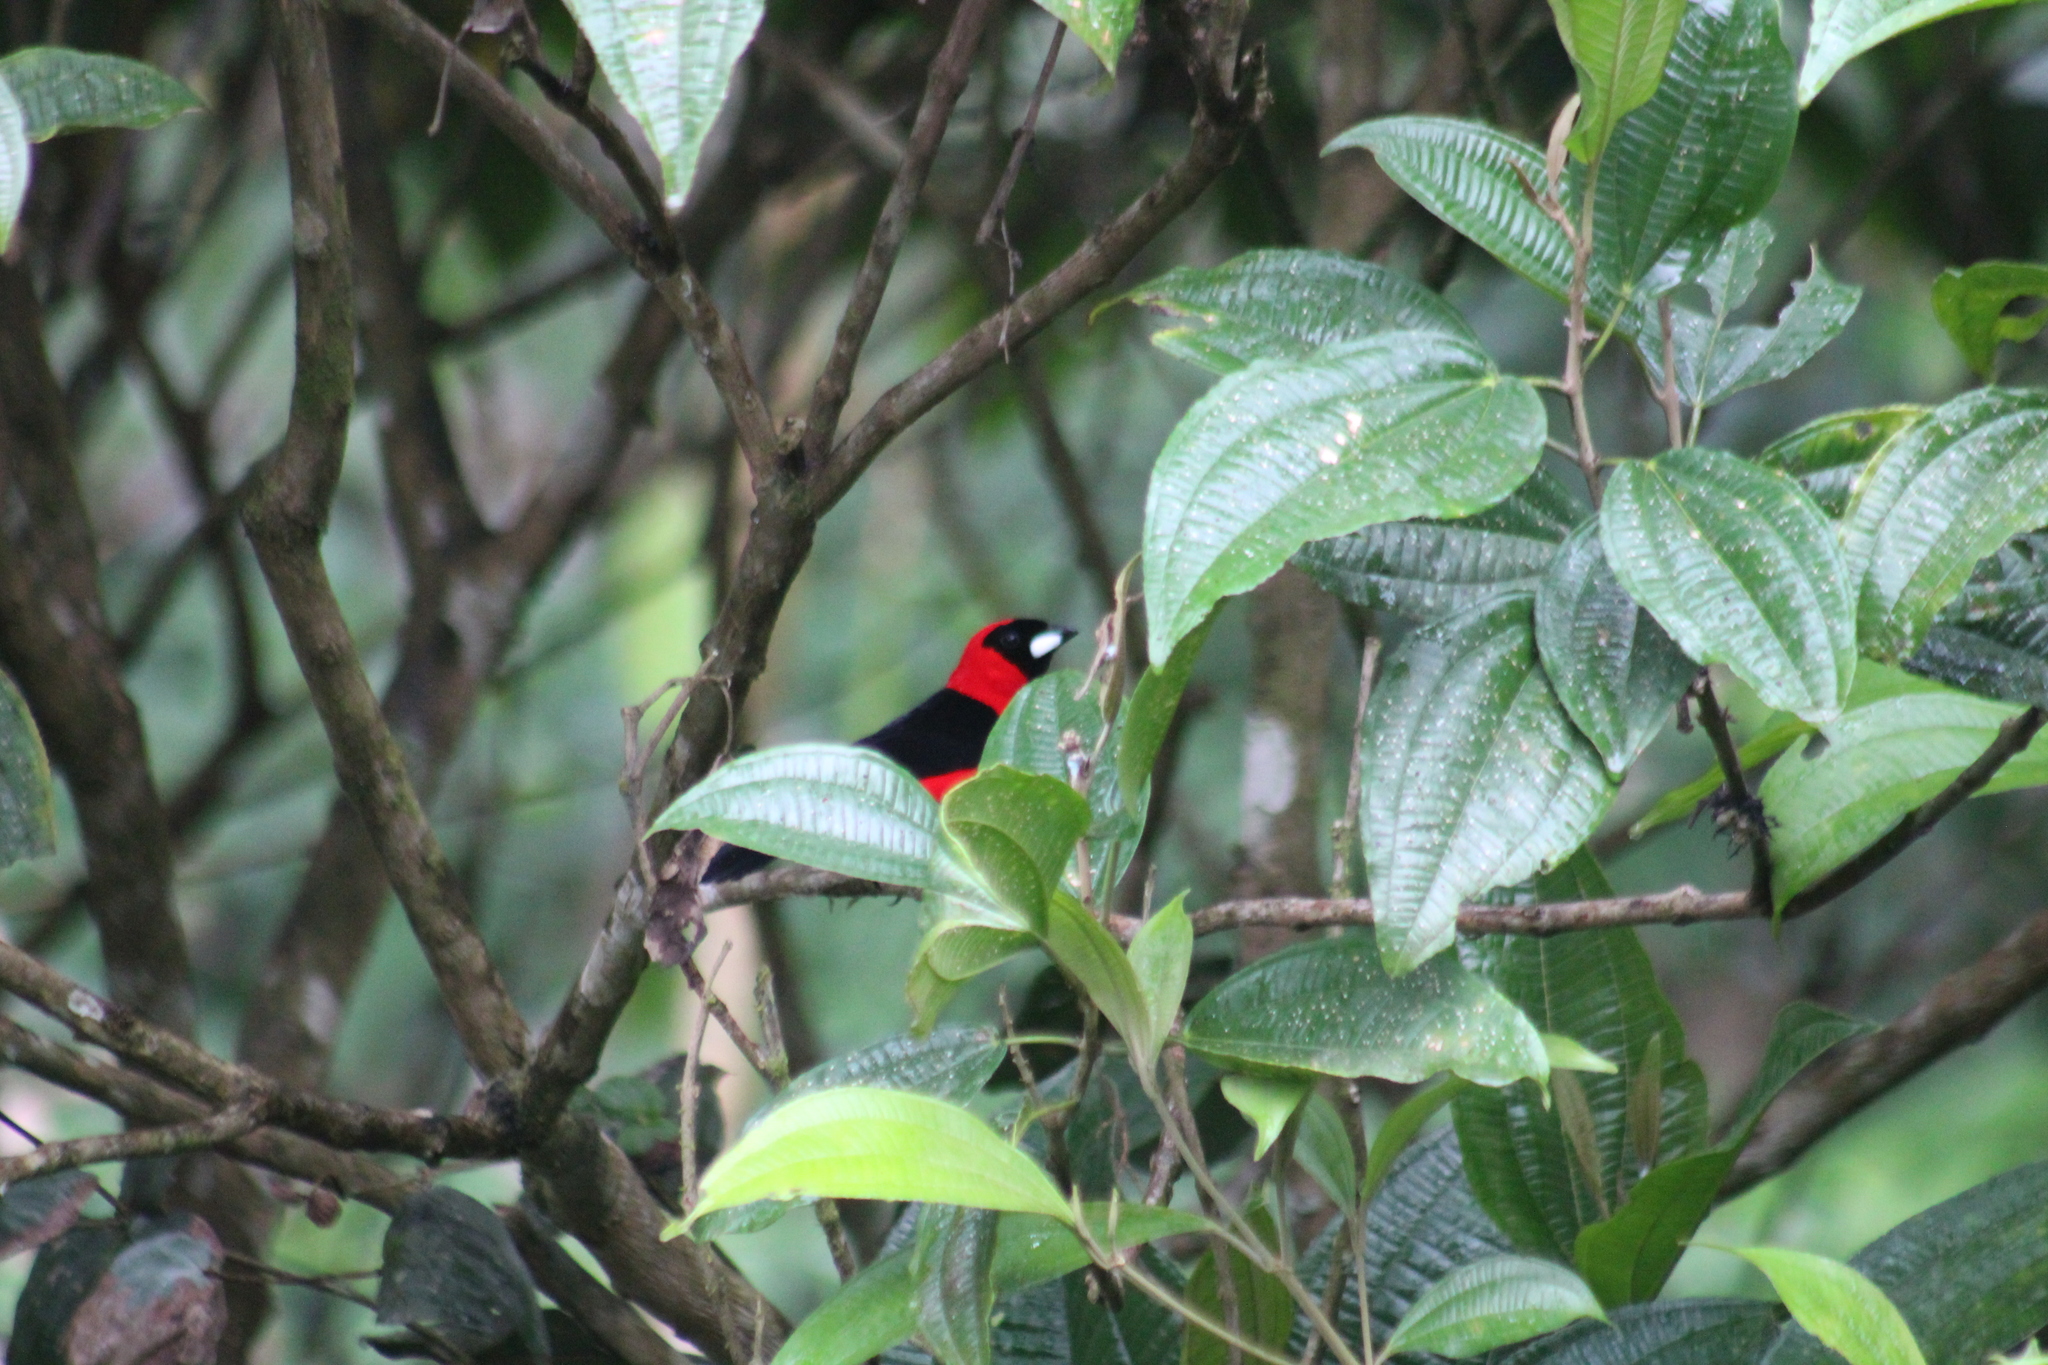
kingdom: Animalia
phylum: Chordata
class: Aves
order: Passeriformes
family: Thraupidae
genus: Ramphocelus
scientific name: Ramphocelus nigrogularis
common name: Masked crimson tanager
